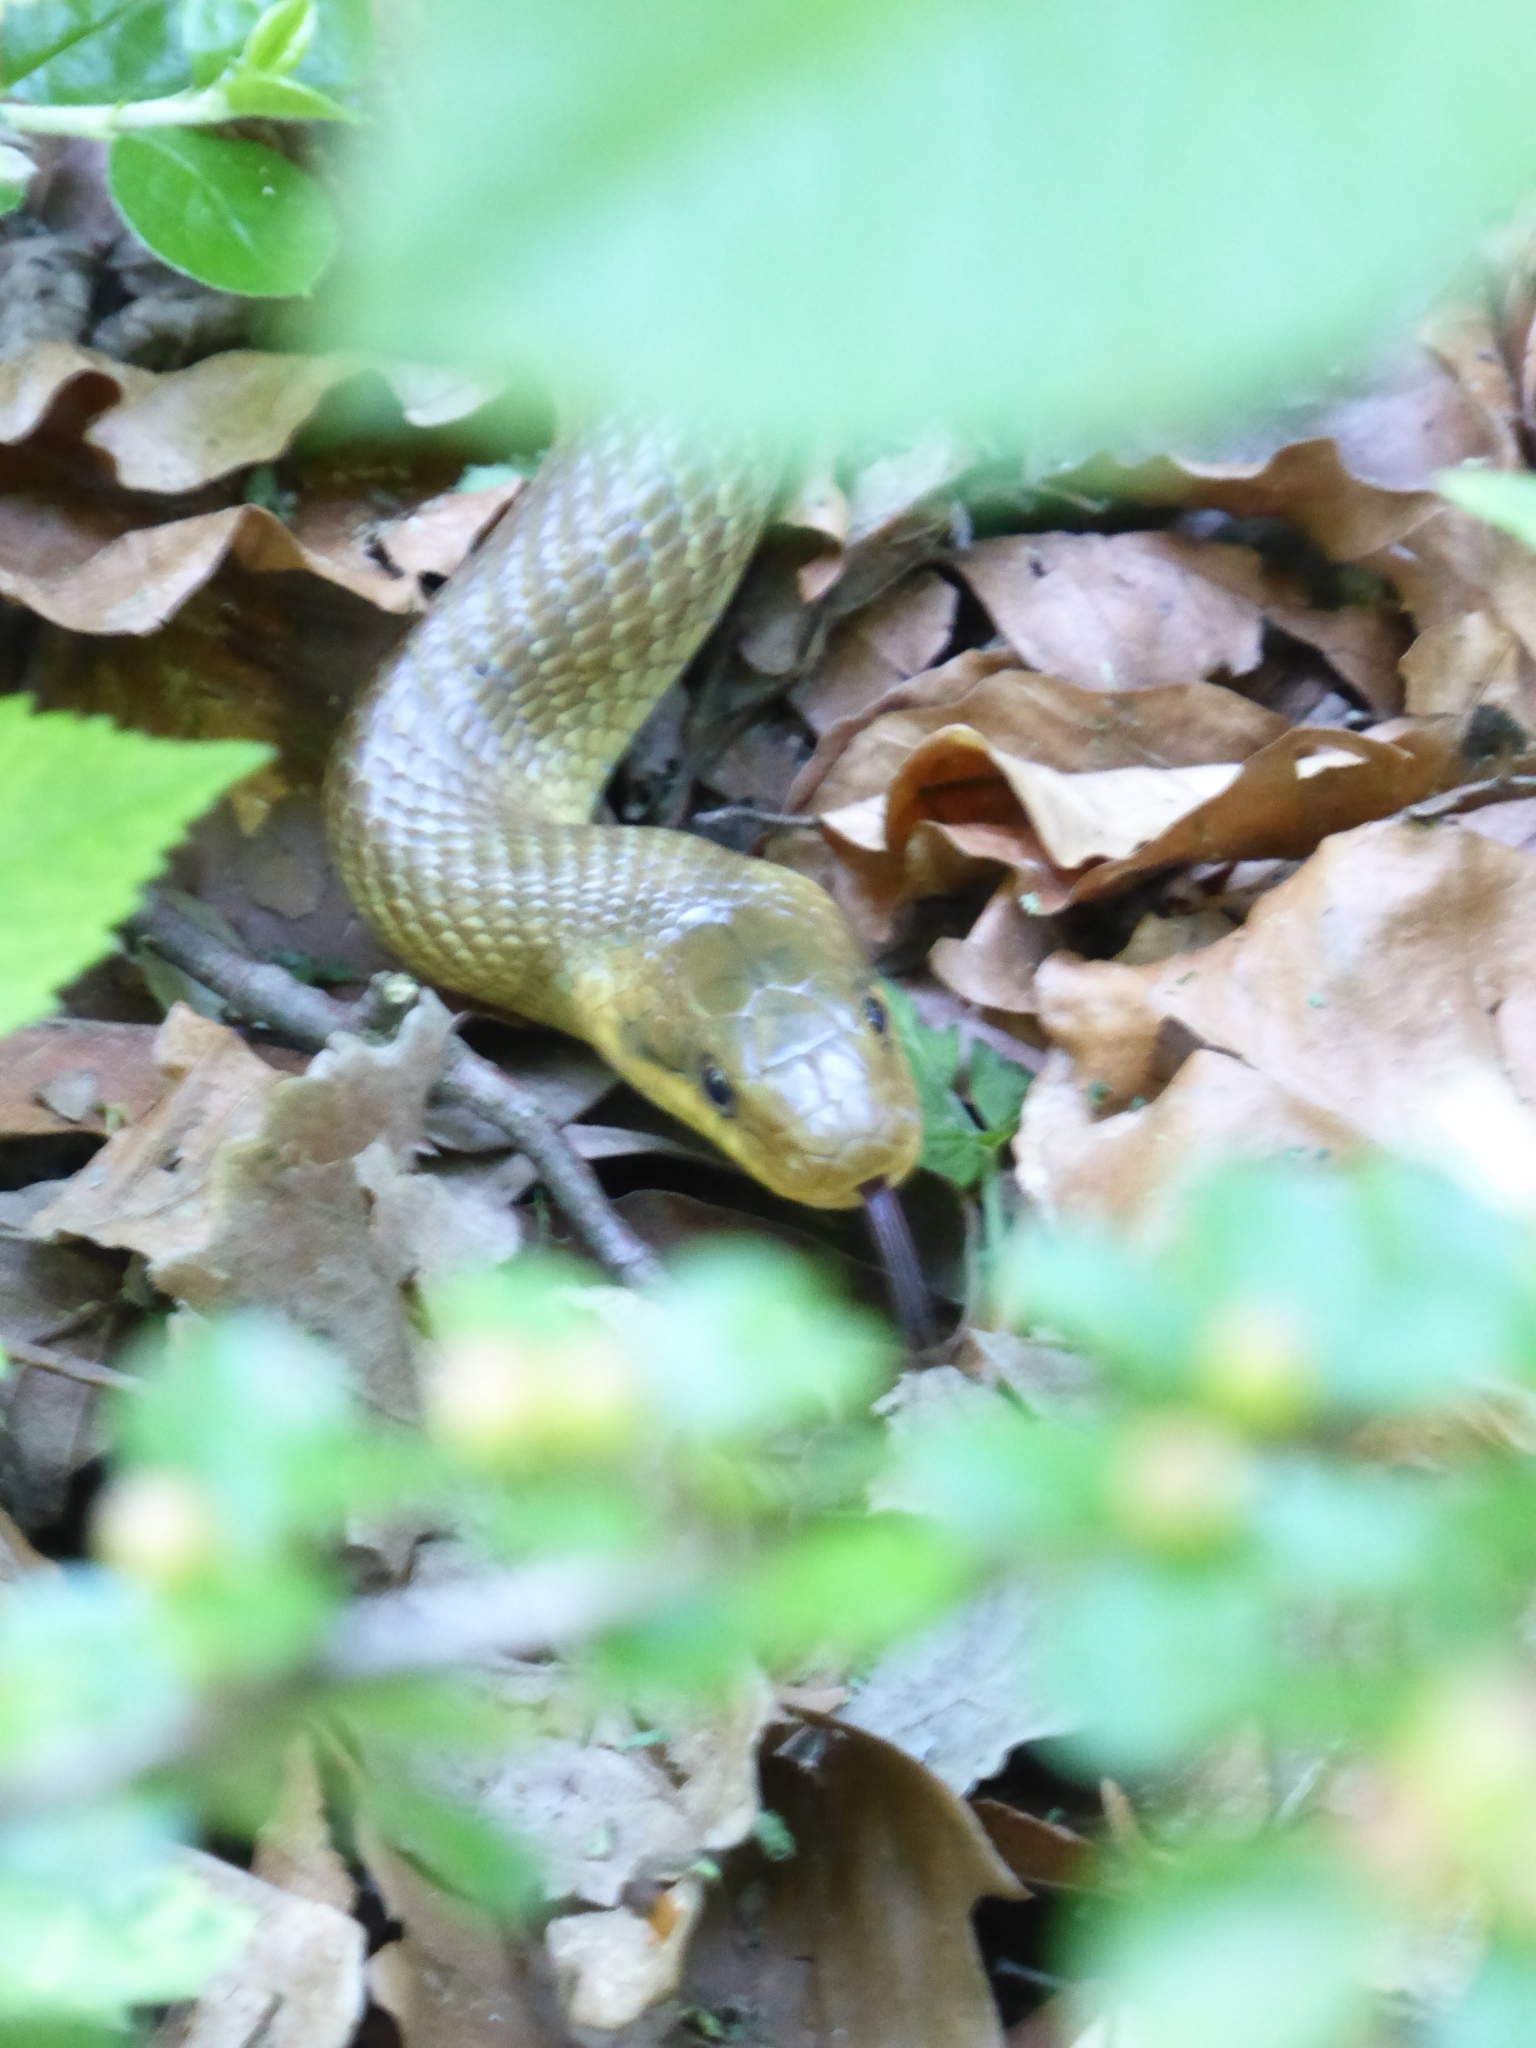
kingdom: Animalia
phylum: Chordata
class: Squamata
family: Colubridae
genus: Zamenis
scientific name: Zamenis longissimus
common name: Aesculapean snake
